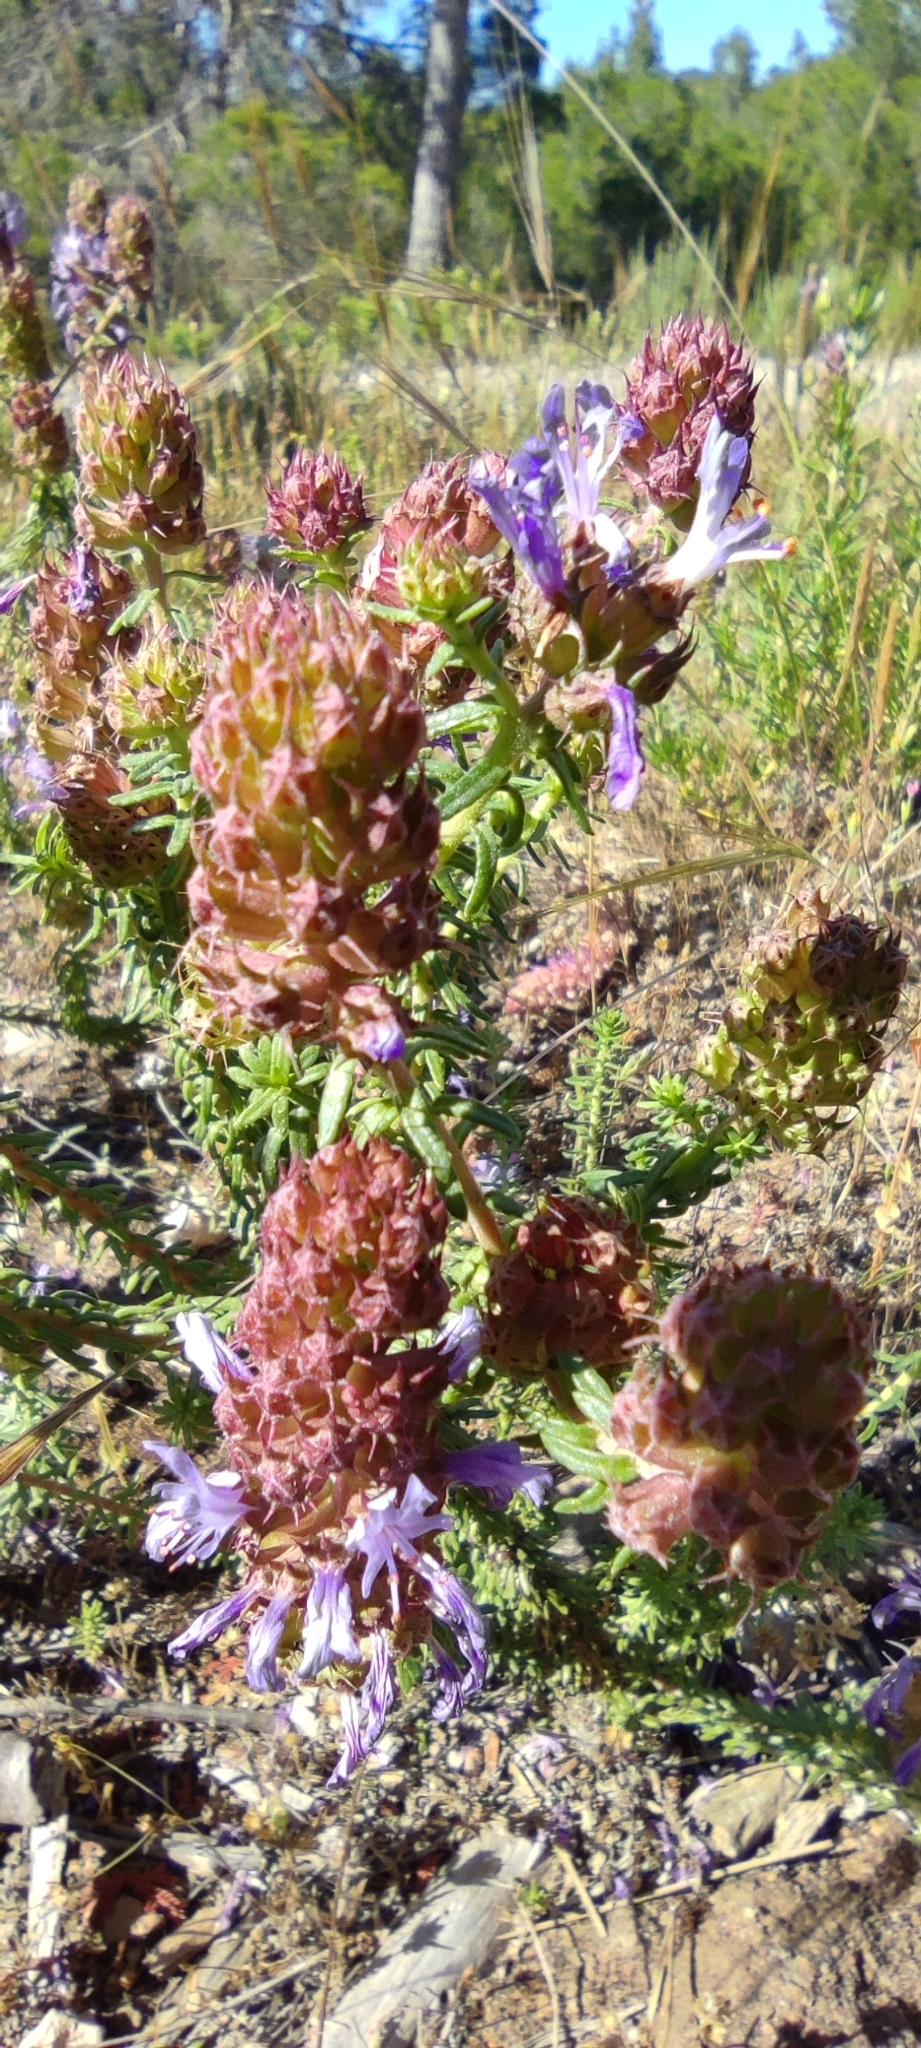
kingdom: Plantae
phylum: Tracheophyta
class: Magnoliopsida
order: Ericales
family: Primulaceae
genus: Coris
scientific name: Coris monspeliensis
